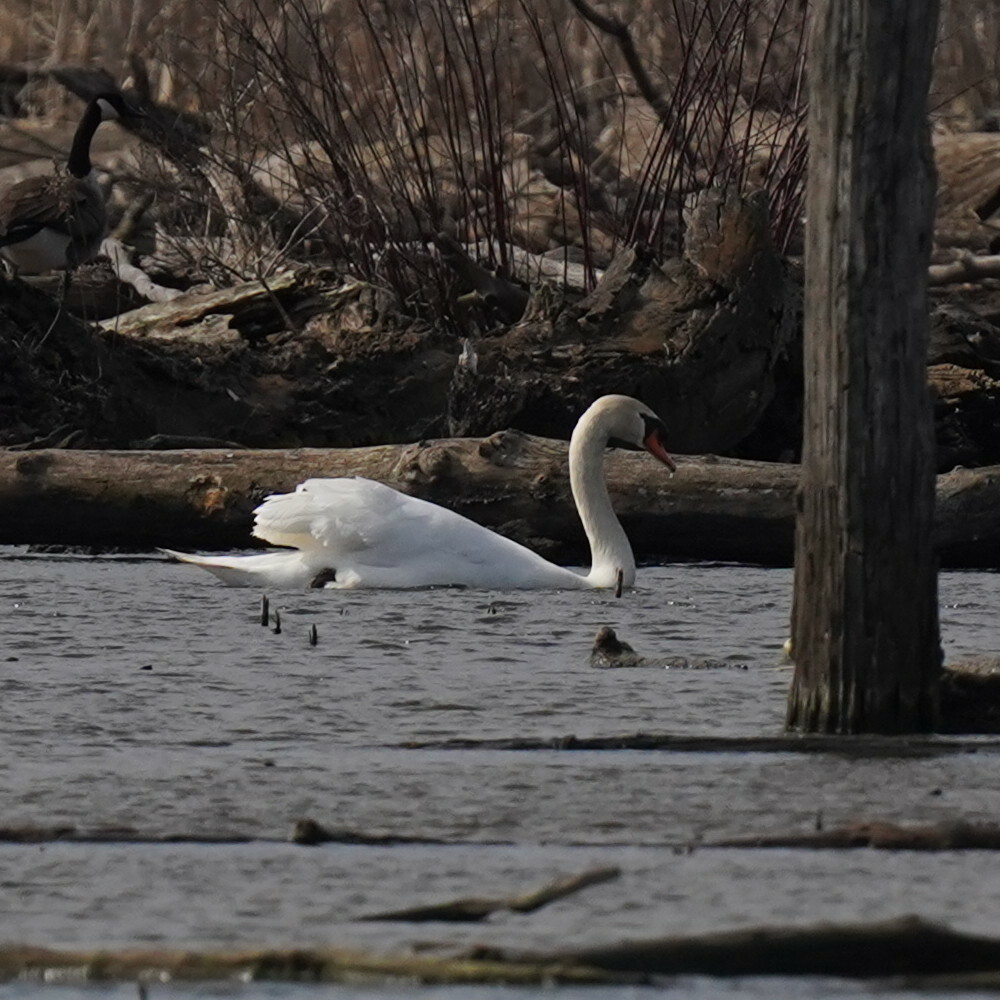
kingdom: Animalia
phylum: Chordata
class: Aves
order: Anseriformes
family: Anatidae
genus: Cygnus
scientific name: Cygnus olor
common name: Mute swan
